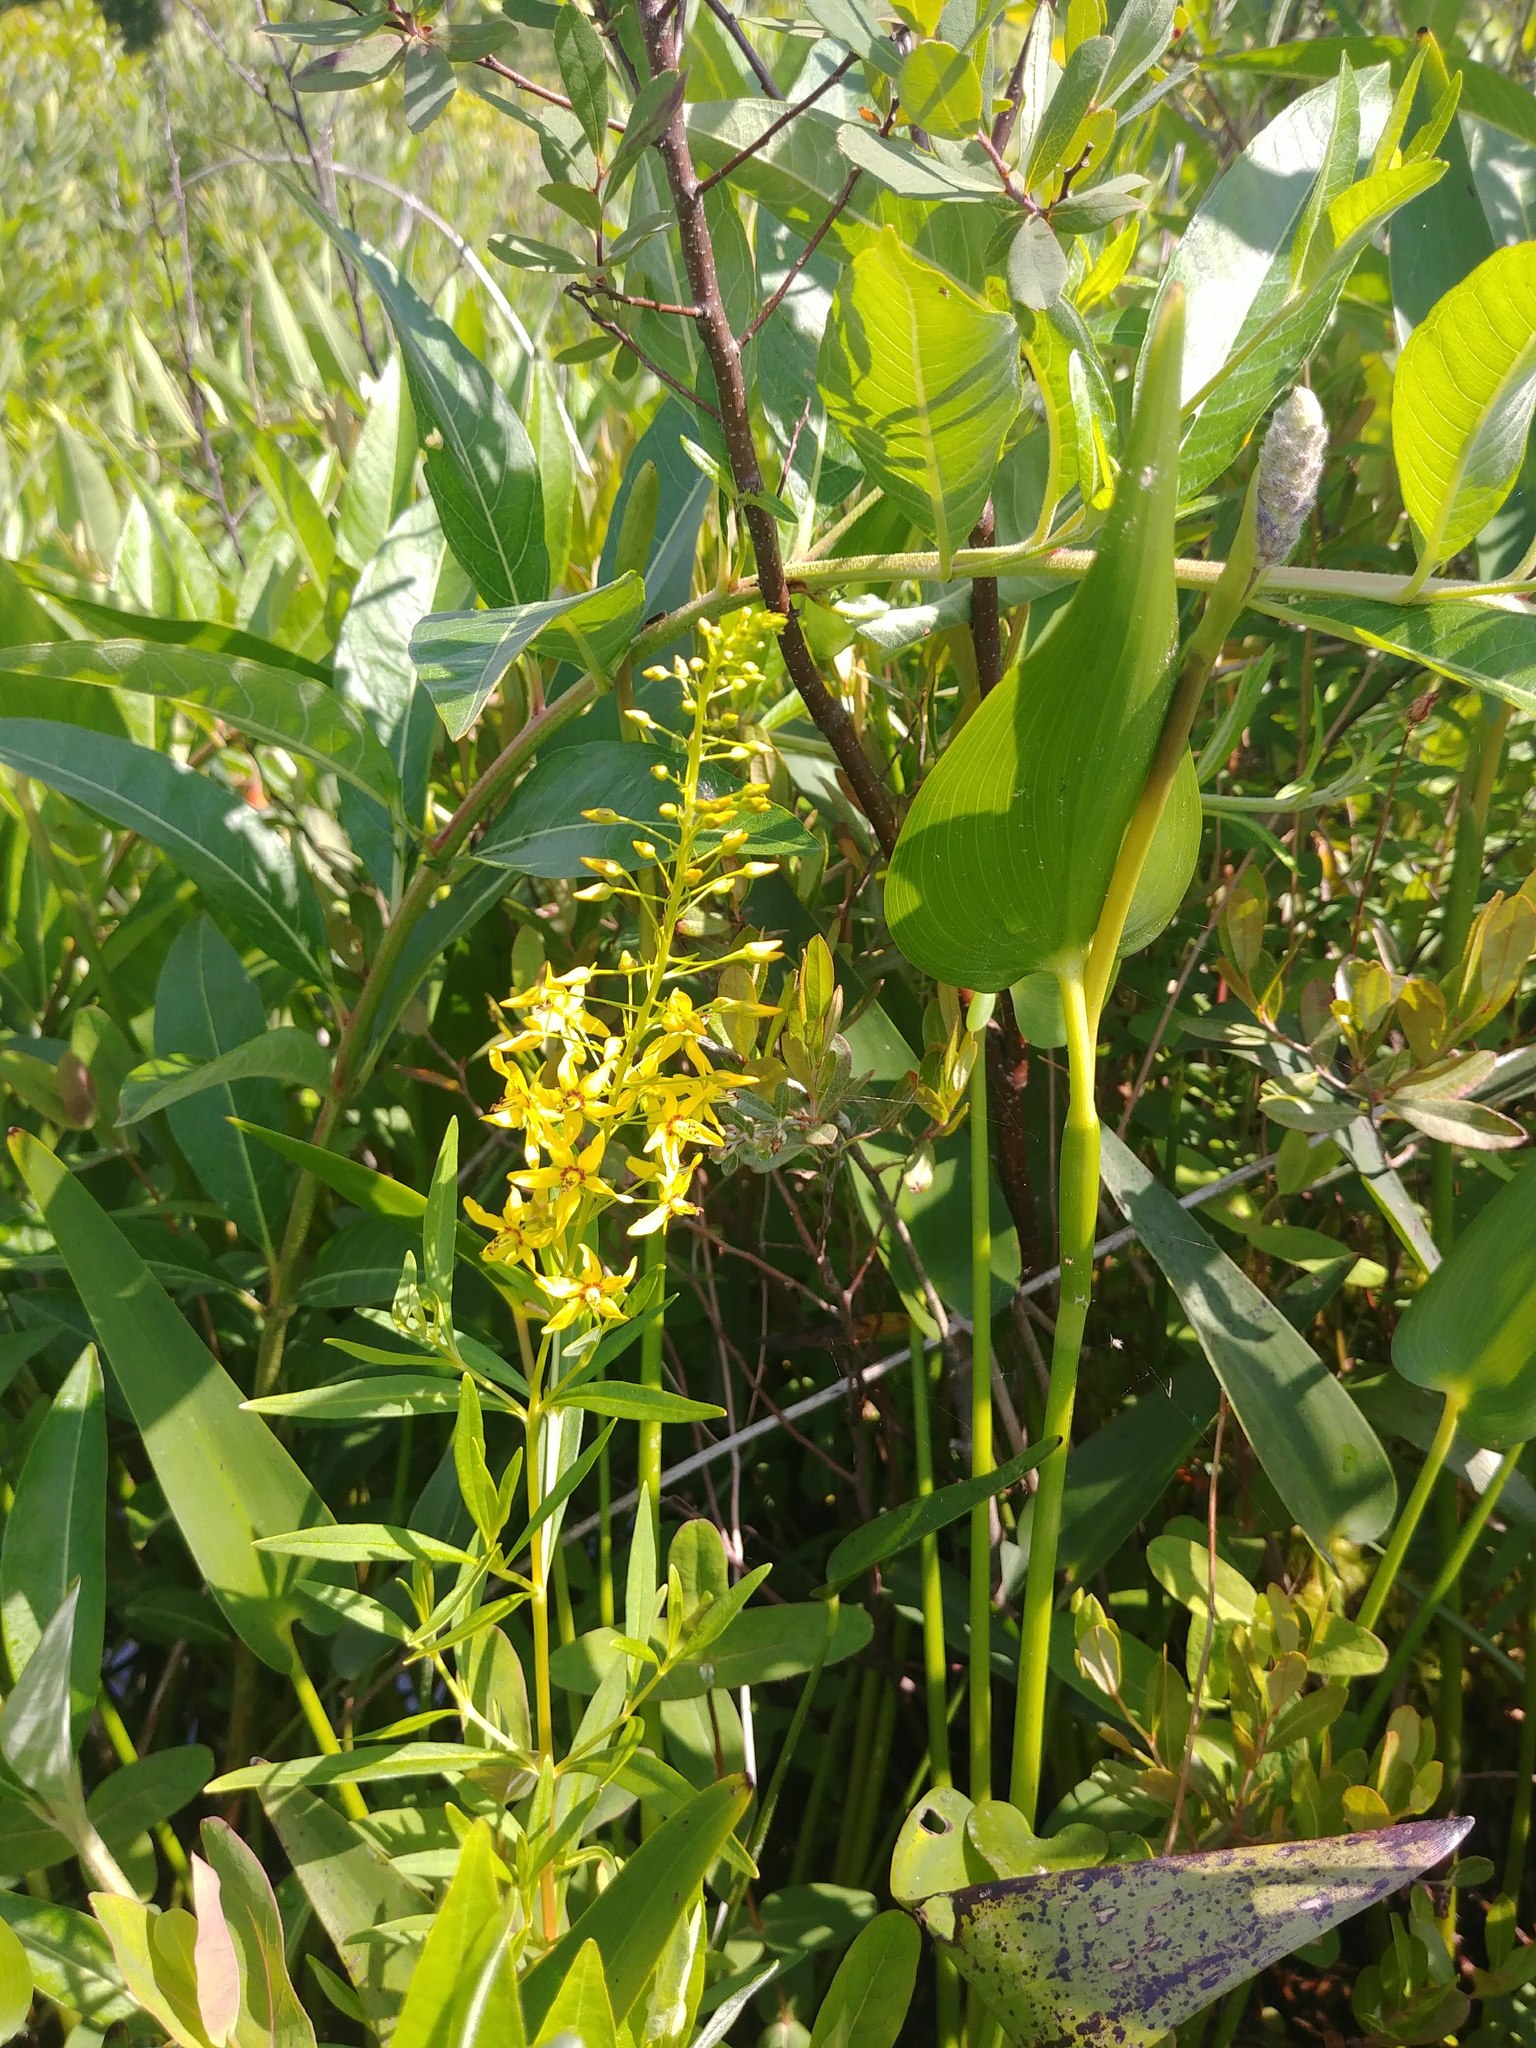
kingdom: Plantae
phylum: Tracheophyta
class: Magnoliopsida
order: Ericales
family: Primulaceae
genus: Lysimachia
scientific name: Lysimachia terrestris
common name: Lake loosestrife
